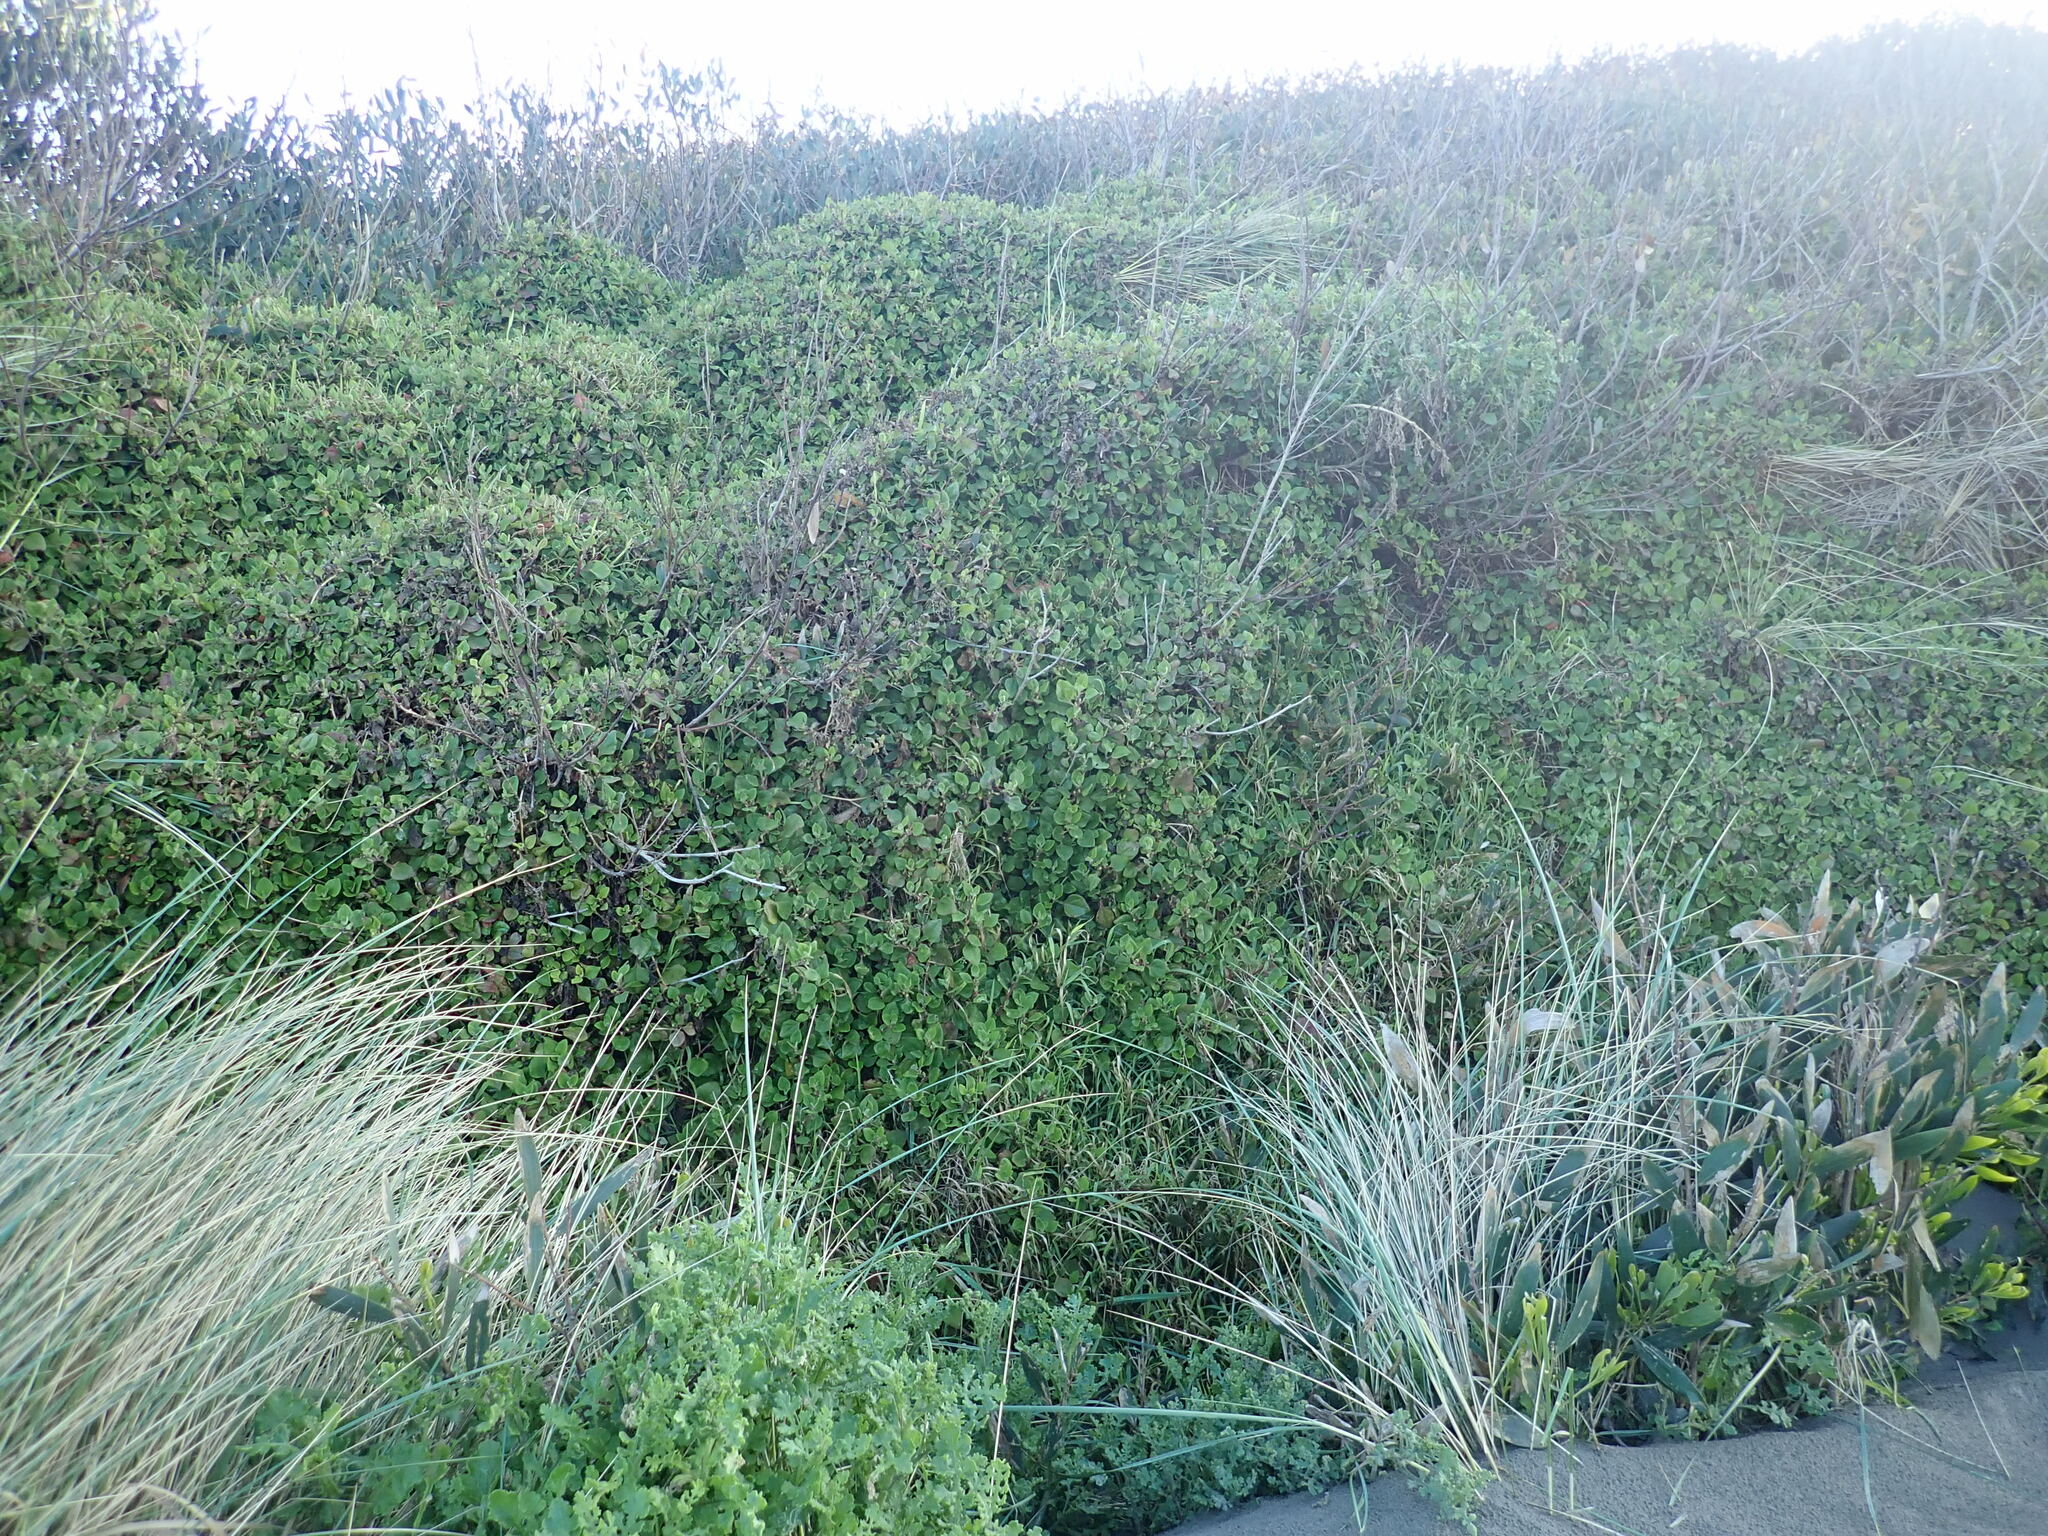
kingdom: Plantae
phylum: Tracheophyta
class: Magnoliopsida
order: Caryophyllales
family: Aizoaceae
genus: Tetragonia
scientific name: Tetragonia implexicoma
